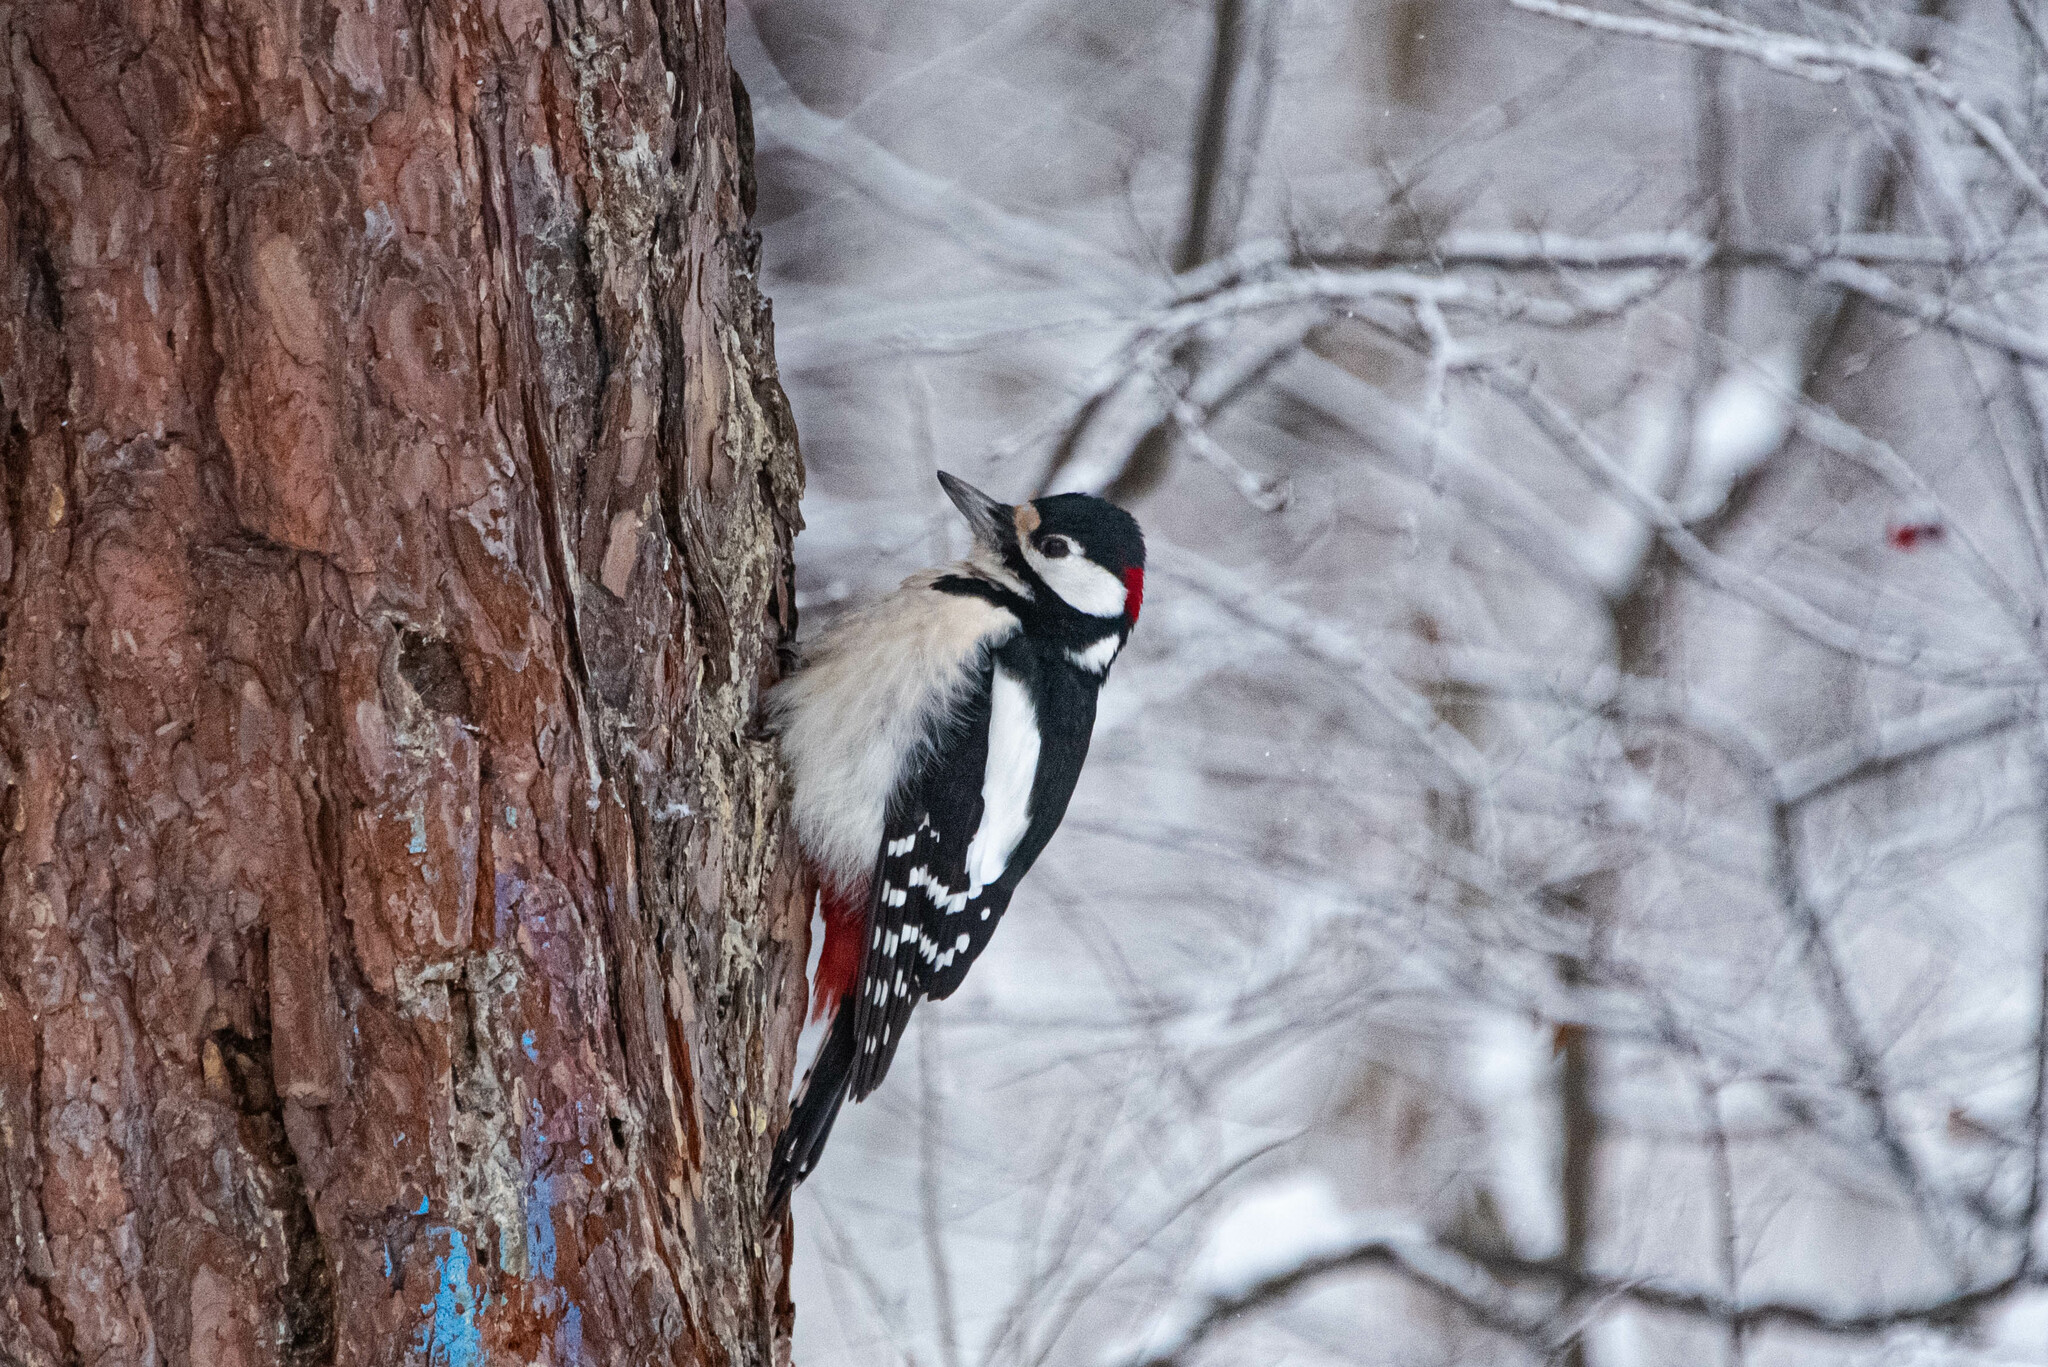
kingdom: Animalia
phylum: Chordata
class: Aves
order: Piciformes
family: Picidae
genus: Dendrocopos
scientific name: Dendrocopos major
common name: Great spotted woodpecker
